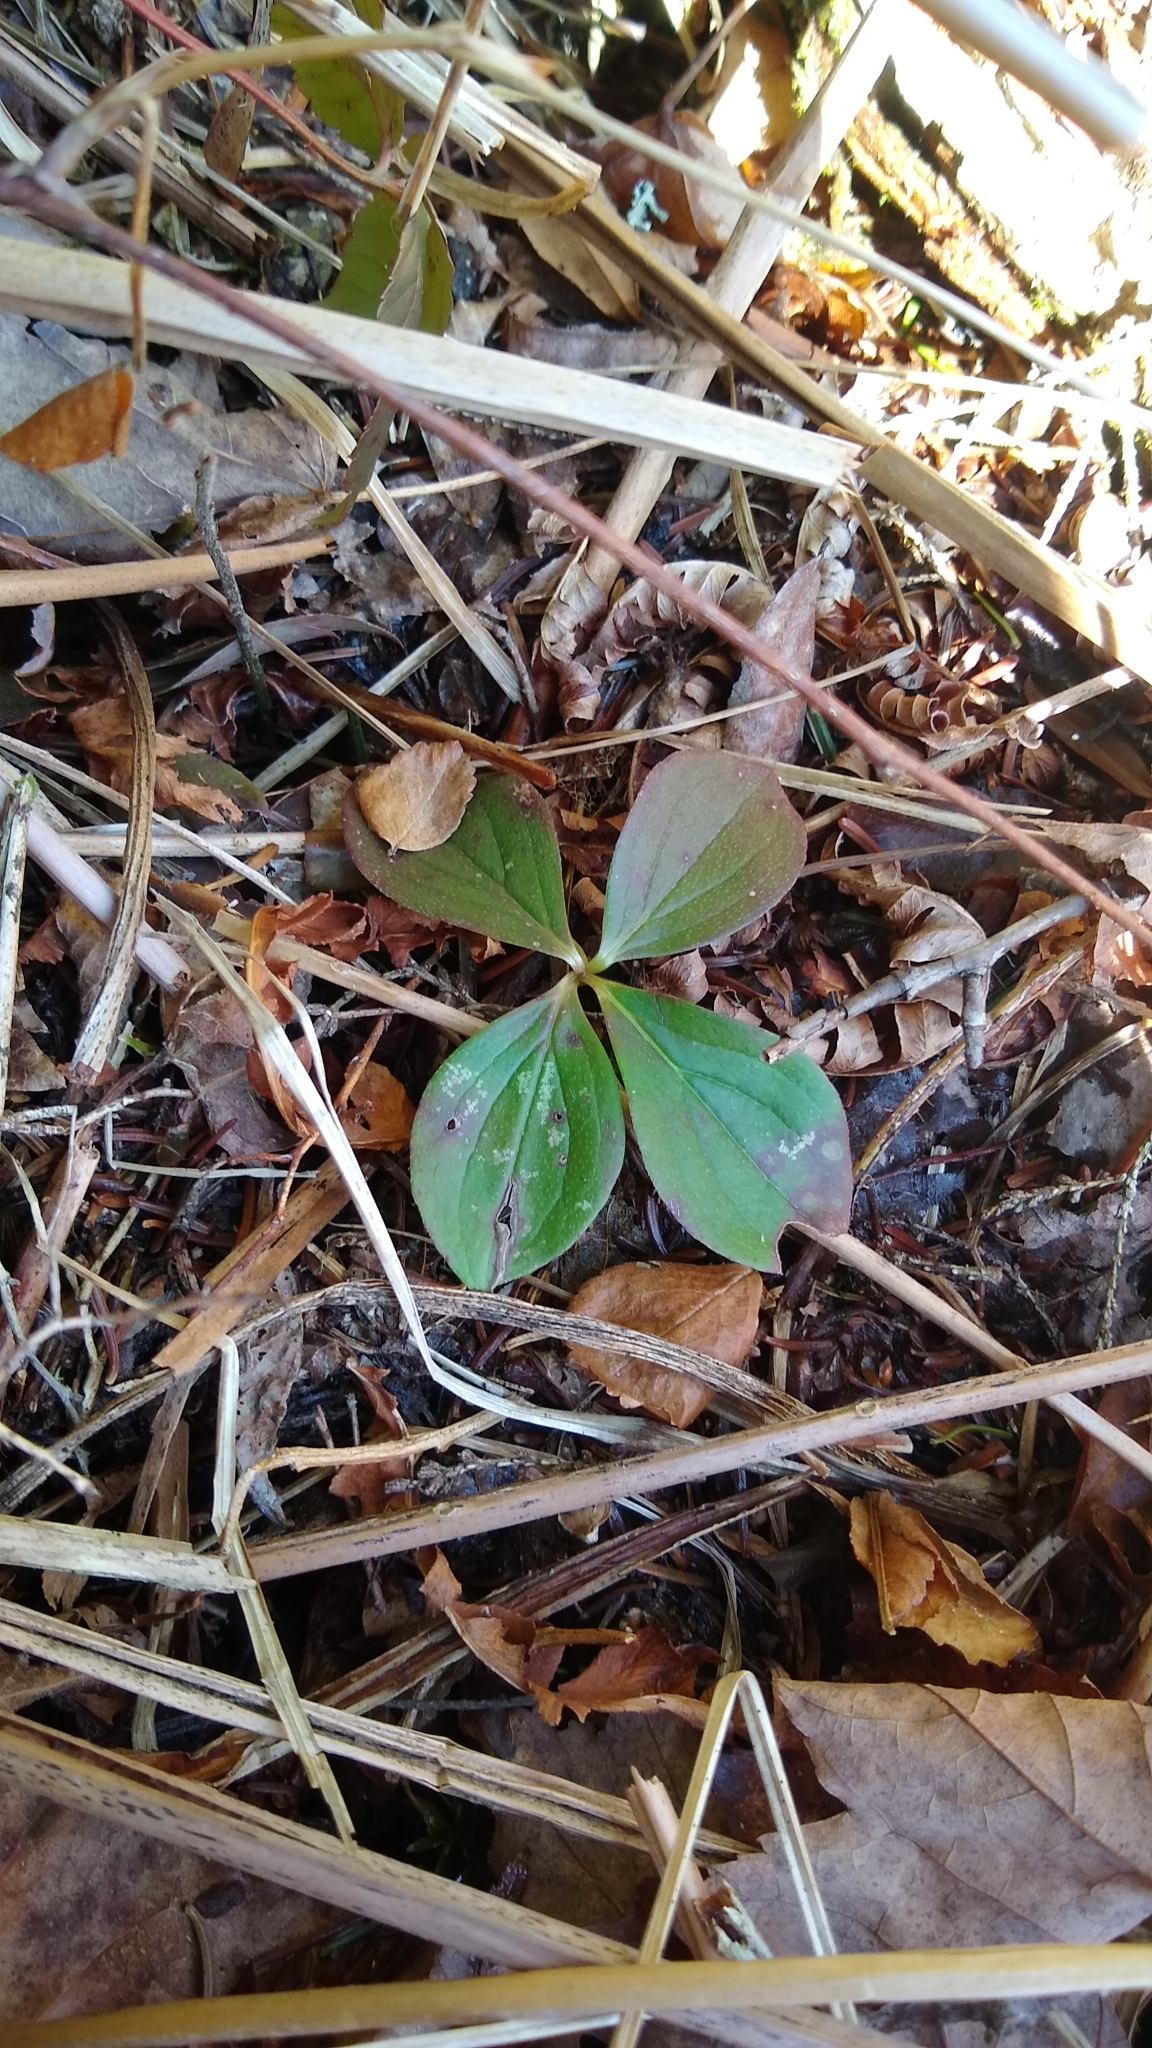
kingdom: Plantae
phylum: Tracheophyta
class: Magnoliopsida
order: Cornales
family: Cornaceae
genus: Cornus
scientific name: Cornus canadensis
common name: Creeping dogwood
